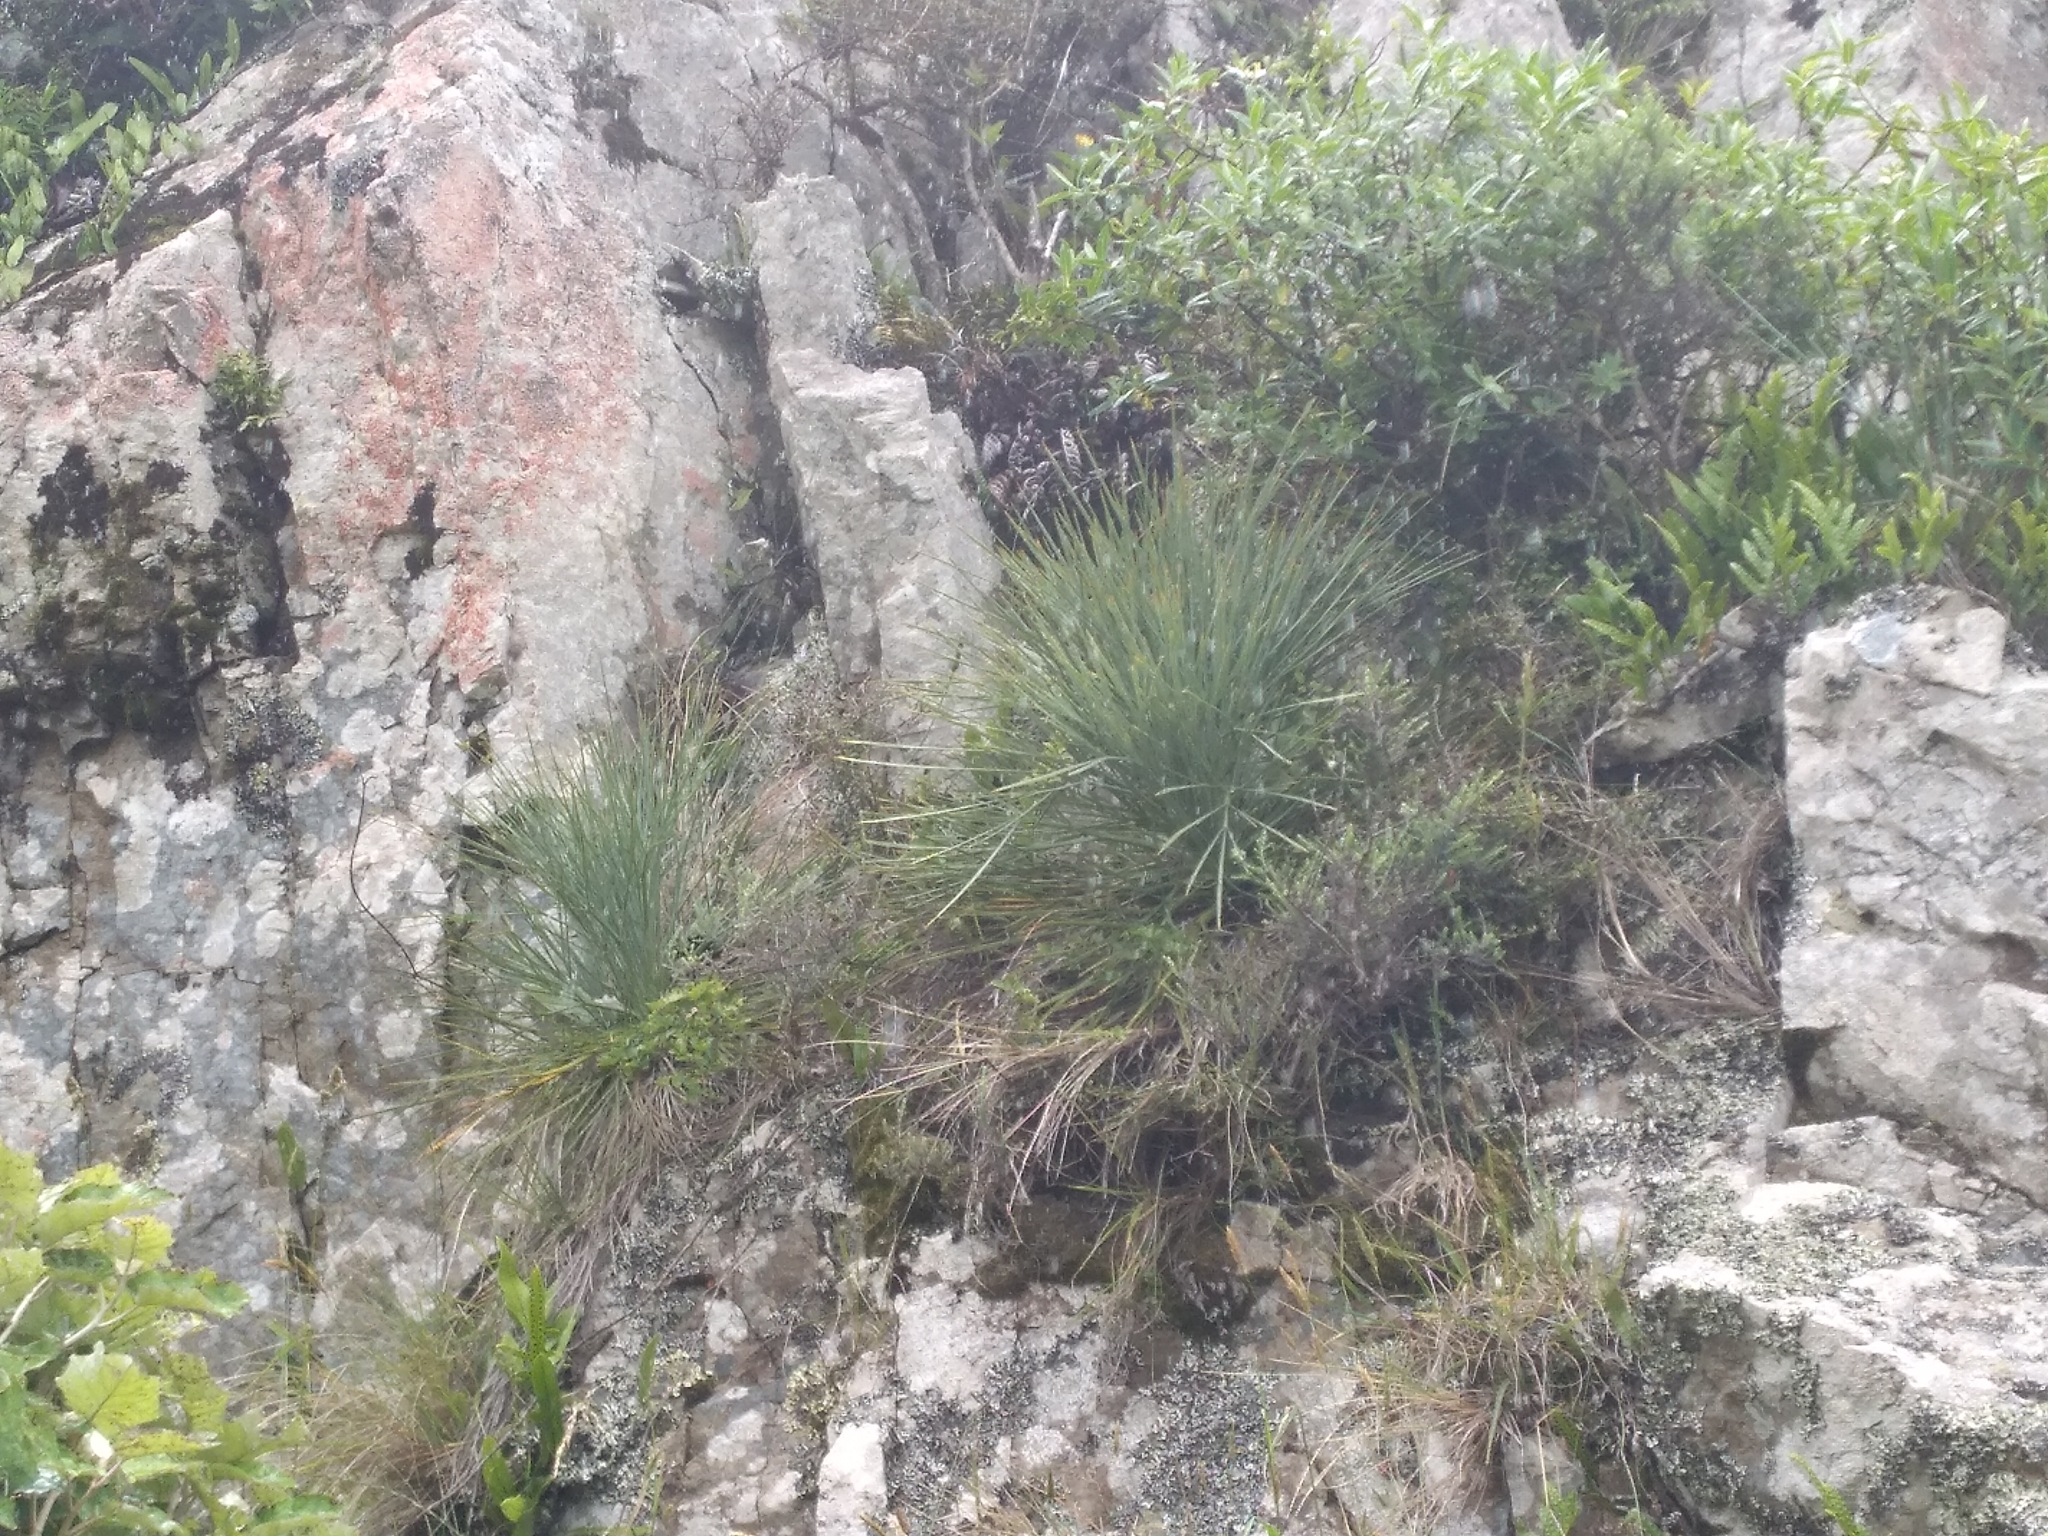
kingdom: Plantae
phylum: Tracheophyta
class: Magnoliopsida
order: Apiales
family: Apiaceae
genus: Aciphylla
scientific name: Aciphylla squarrosa
